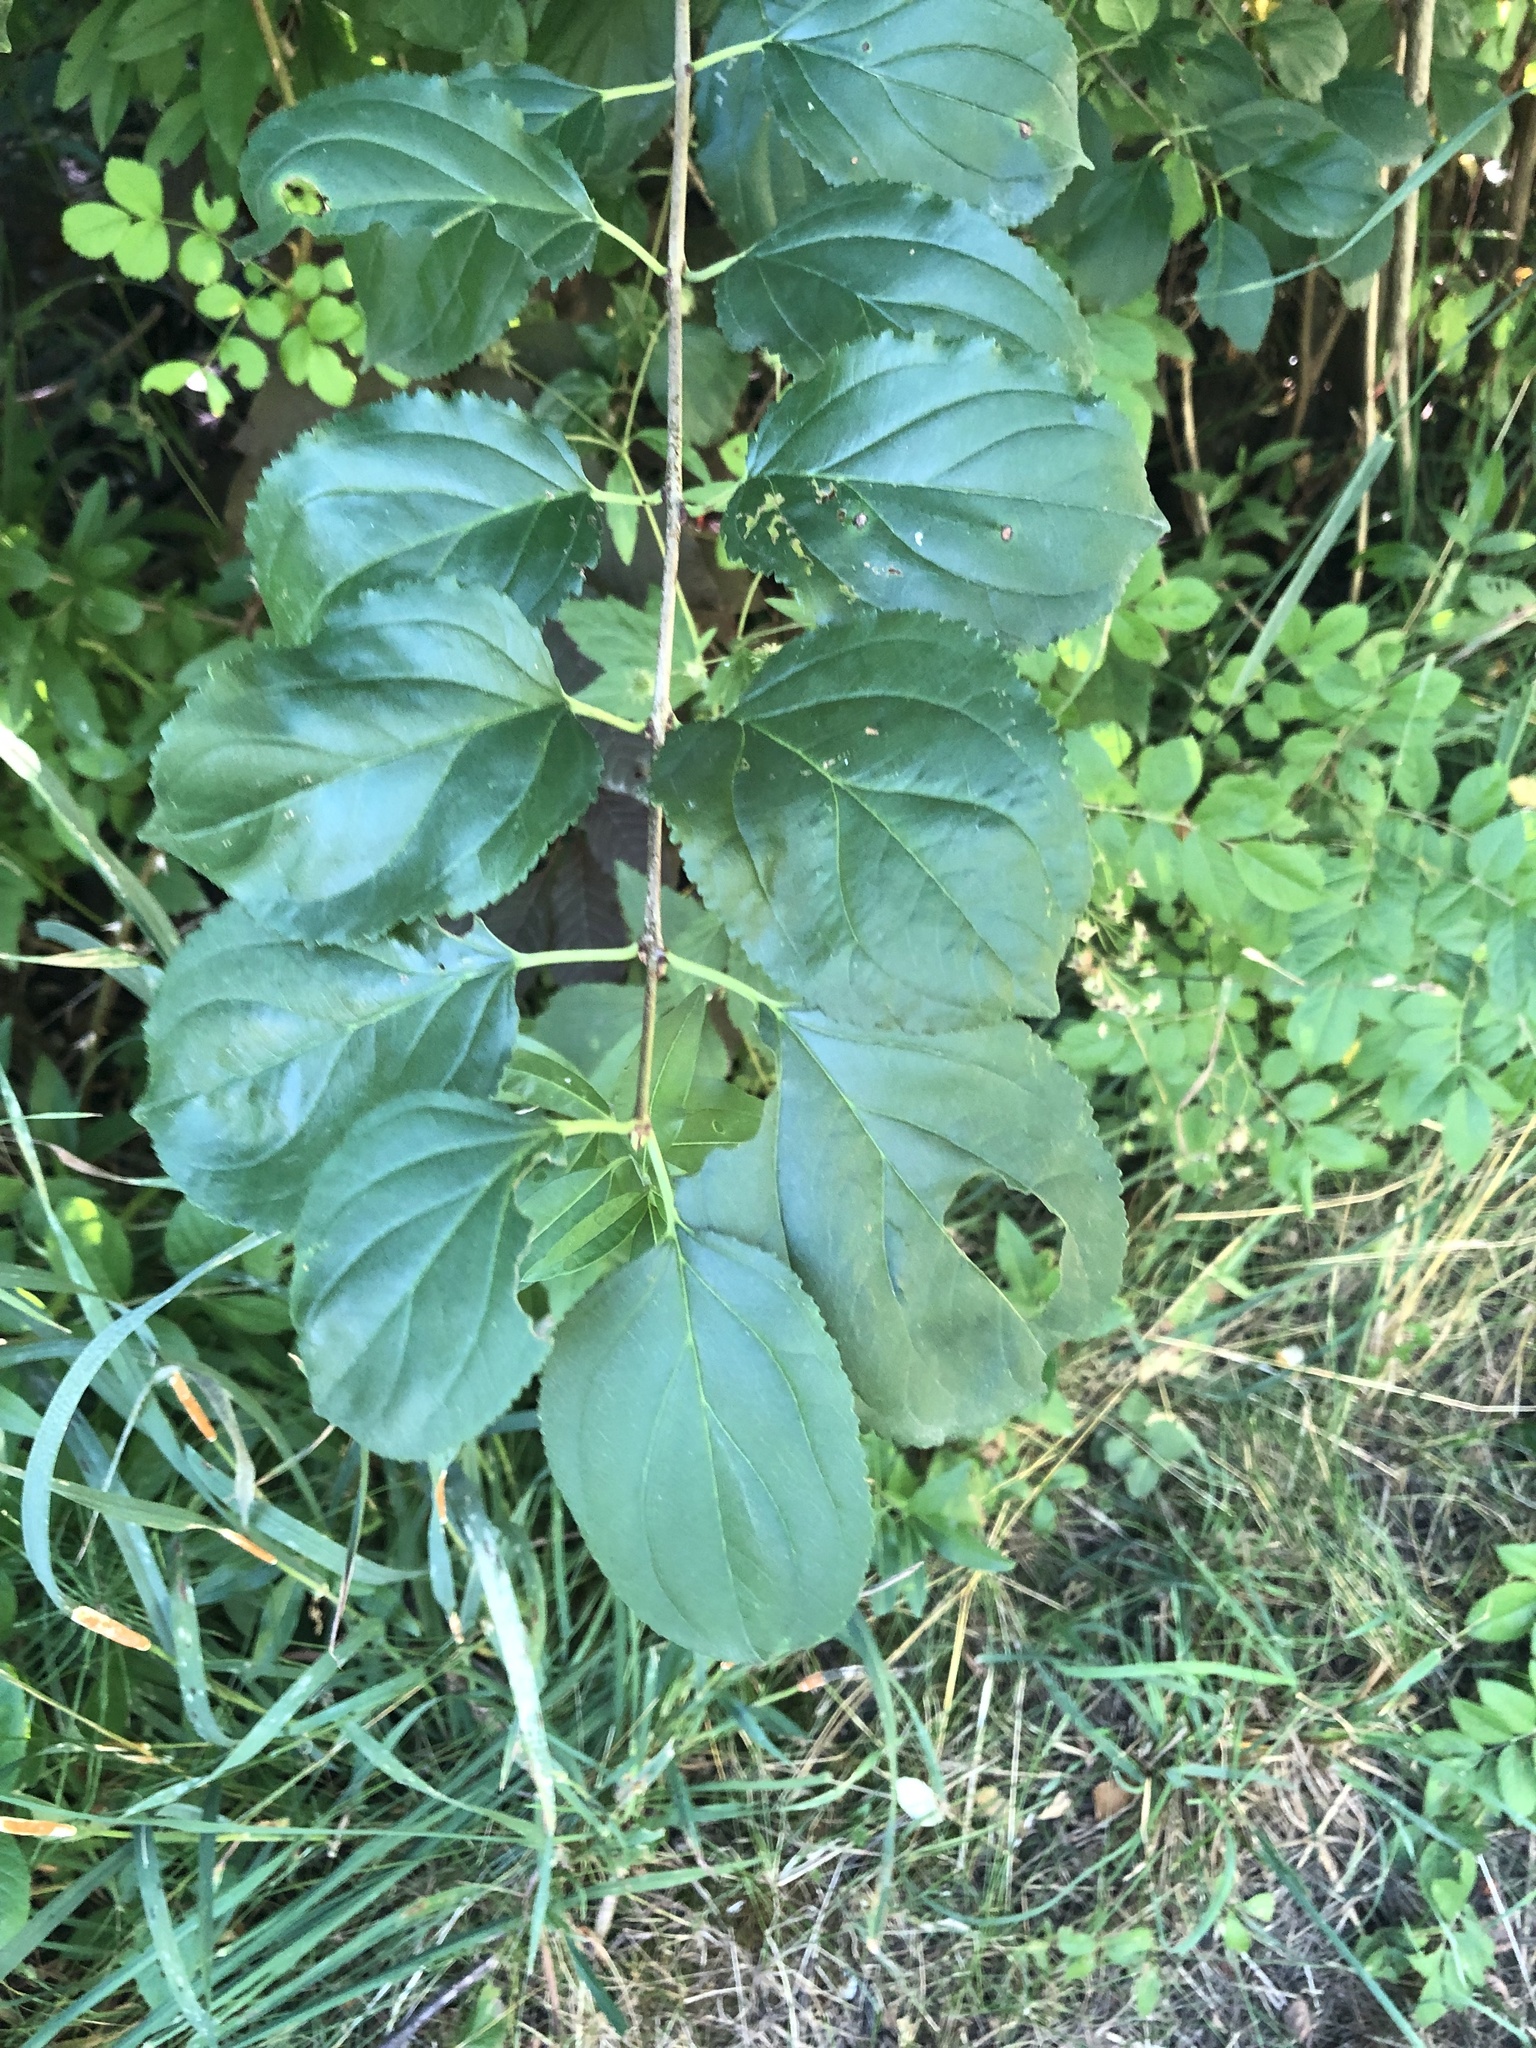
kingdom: Plantae
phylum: Tracheophyta
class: Magnoliopsida
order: Rosales
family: Rhamnaceae
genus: Rhamnus
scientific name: Rhamnus cathartica
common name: Common buckthorn
